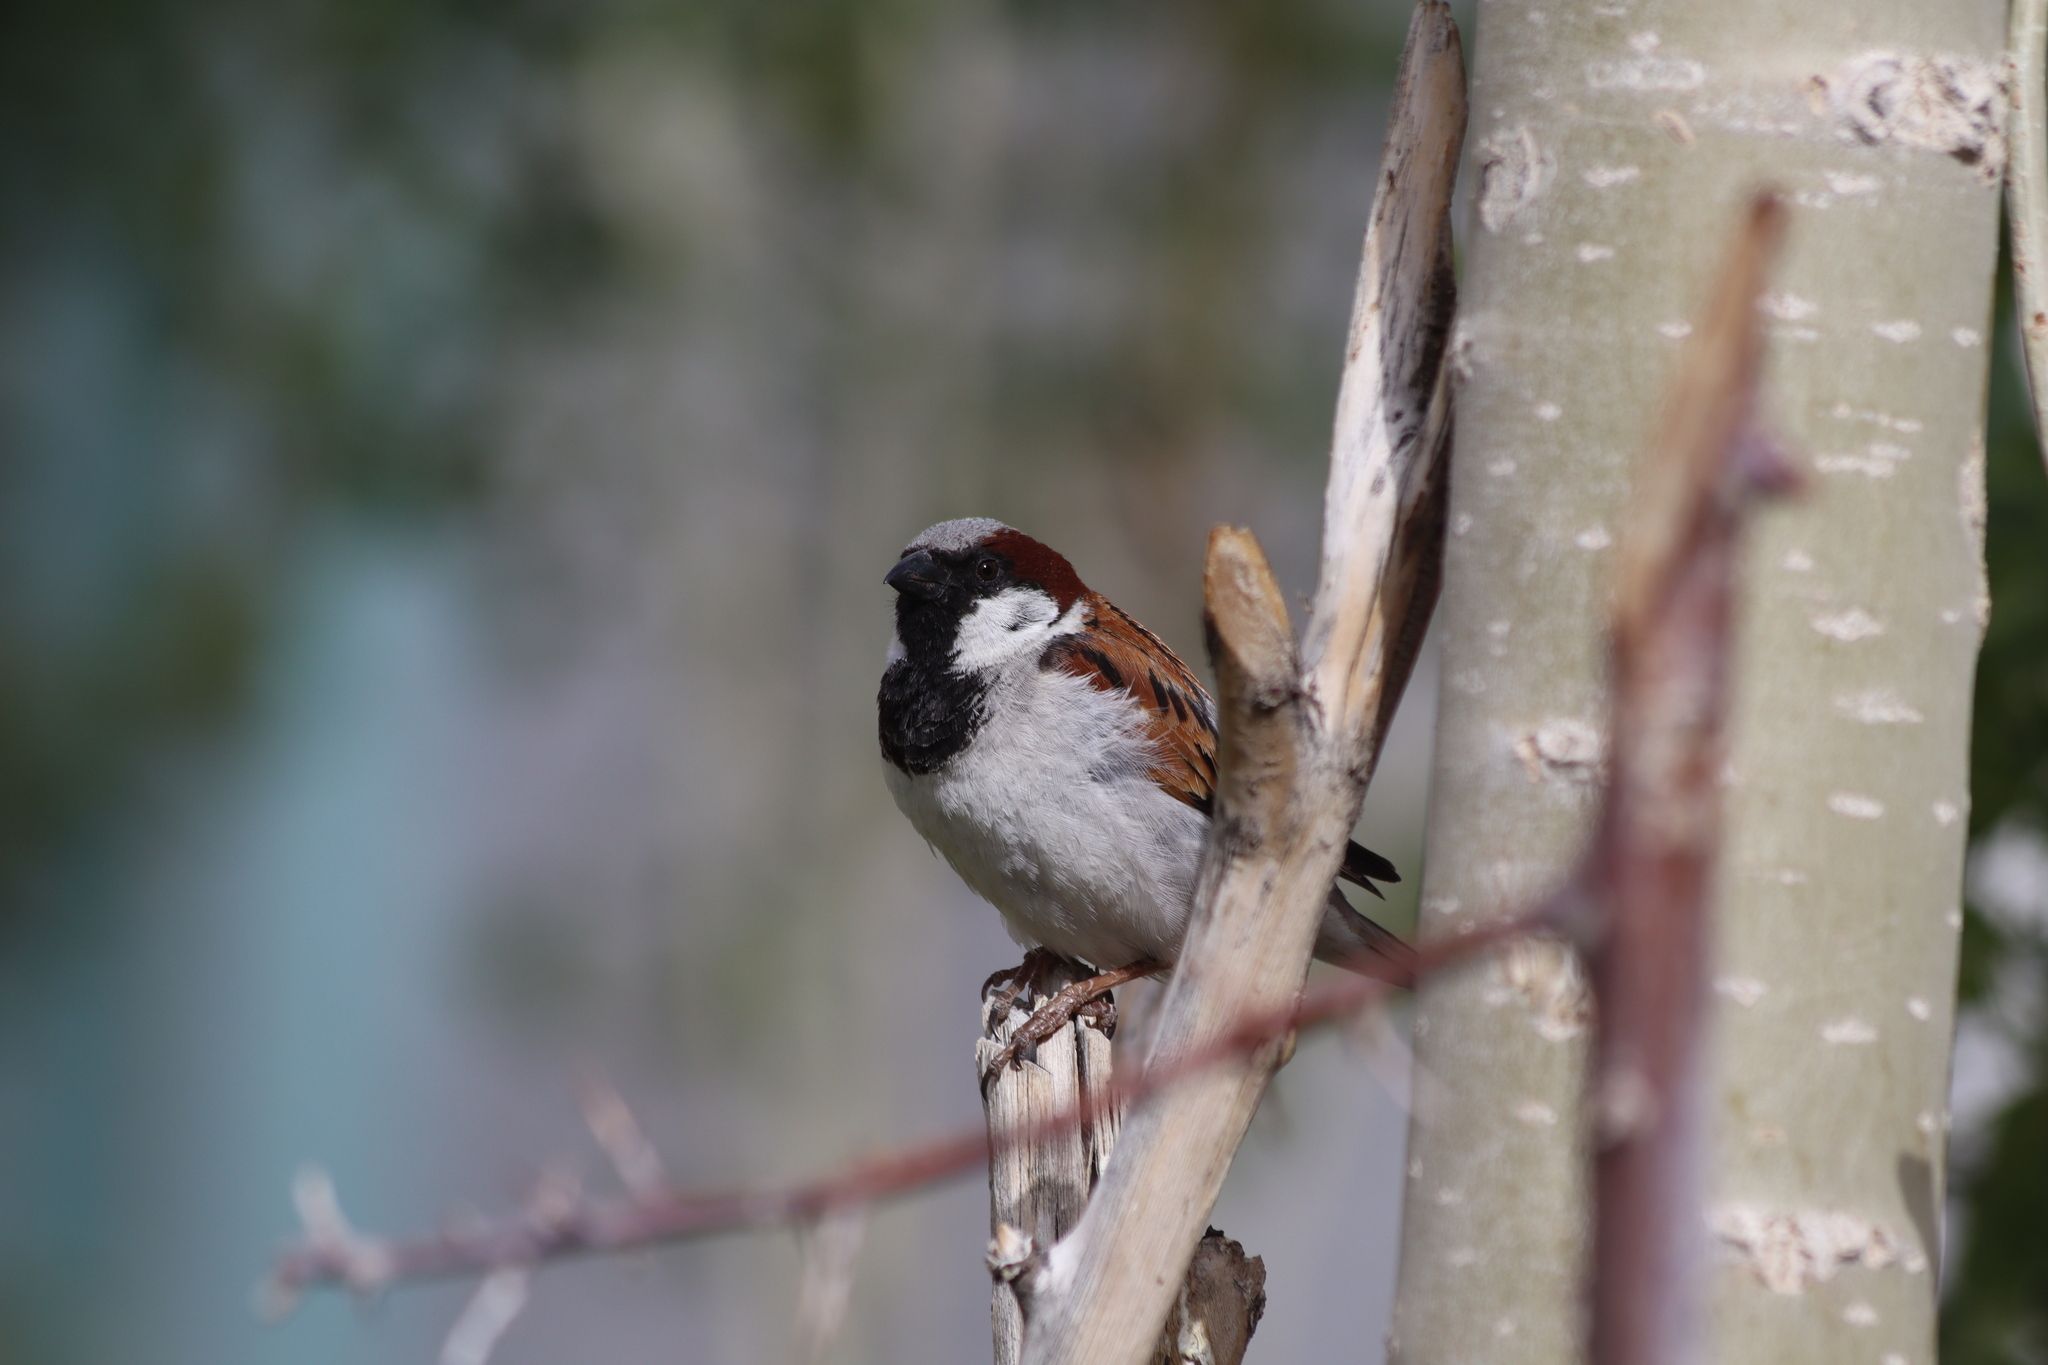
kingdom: Animalia
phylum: Chordata
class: Aves
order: Passeriformes
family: Passeridae
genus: Passer
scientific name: Passer domesticus
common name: House sparrow
